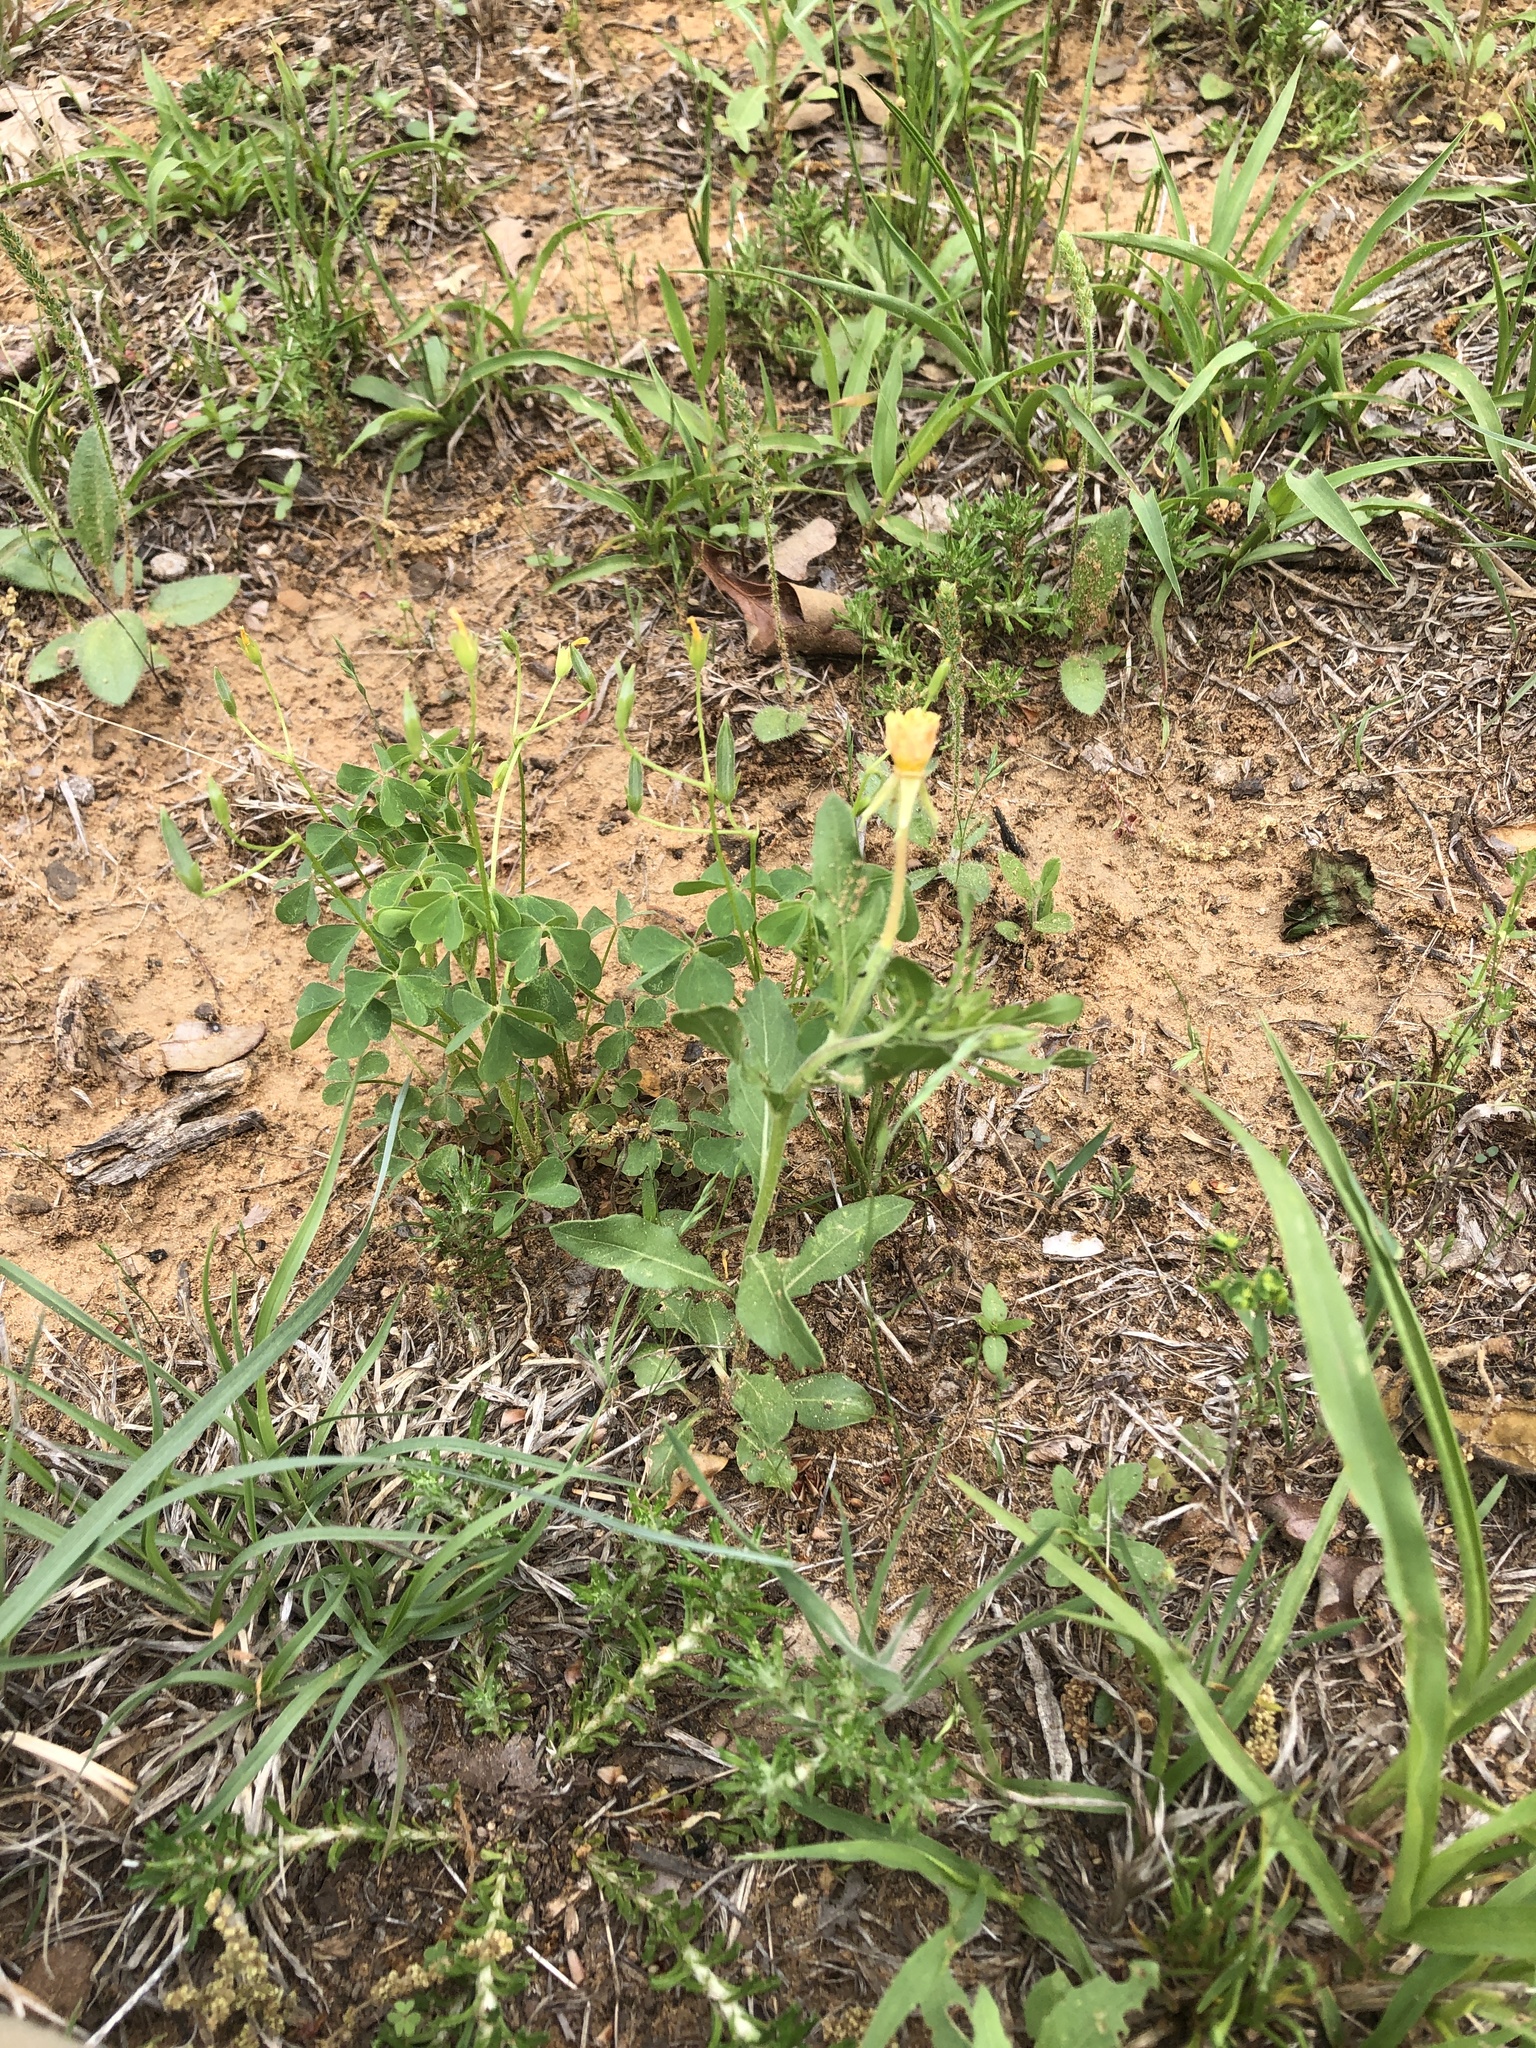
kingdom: Plantae
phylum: Tracheophyta
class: Magnoliopsida
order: Myrtales
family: Onagraceae
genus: Oenothera
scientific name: Oenothera laciniata
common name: Cut-leaved evening-primrose
